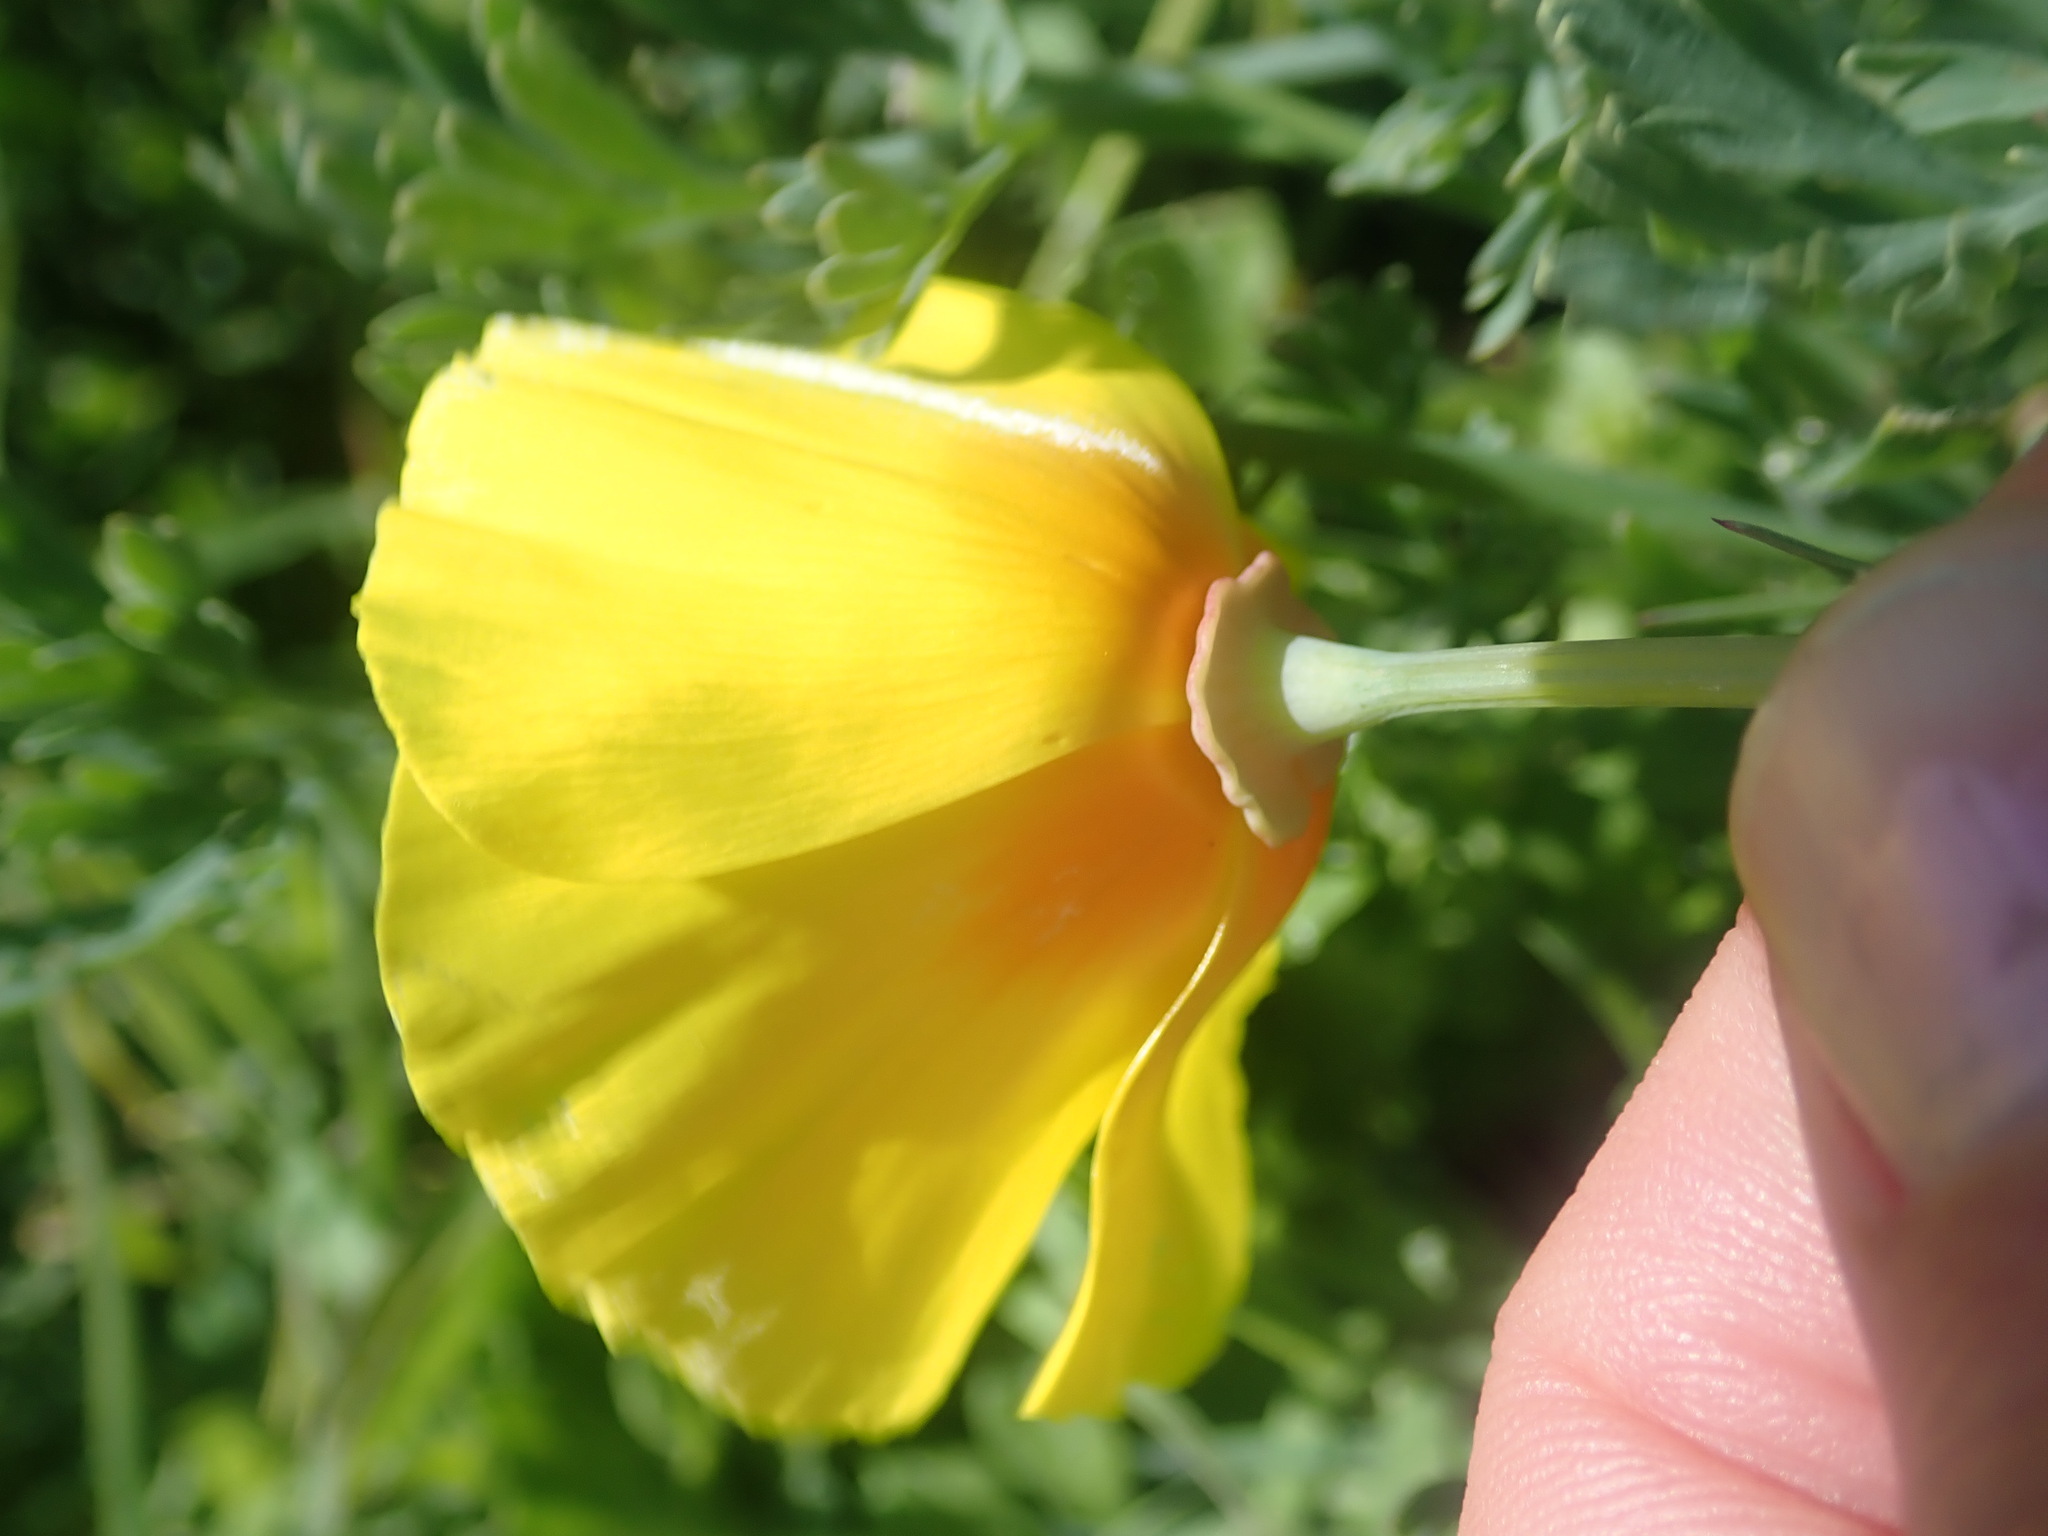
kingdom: Plantae
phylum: Tracheophyta
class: Magnoliopsida
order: Ranunculales
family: Papaveraceae
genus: Eschscholzia
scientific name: Eschscholzia californica
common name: California poppy
